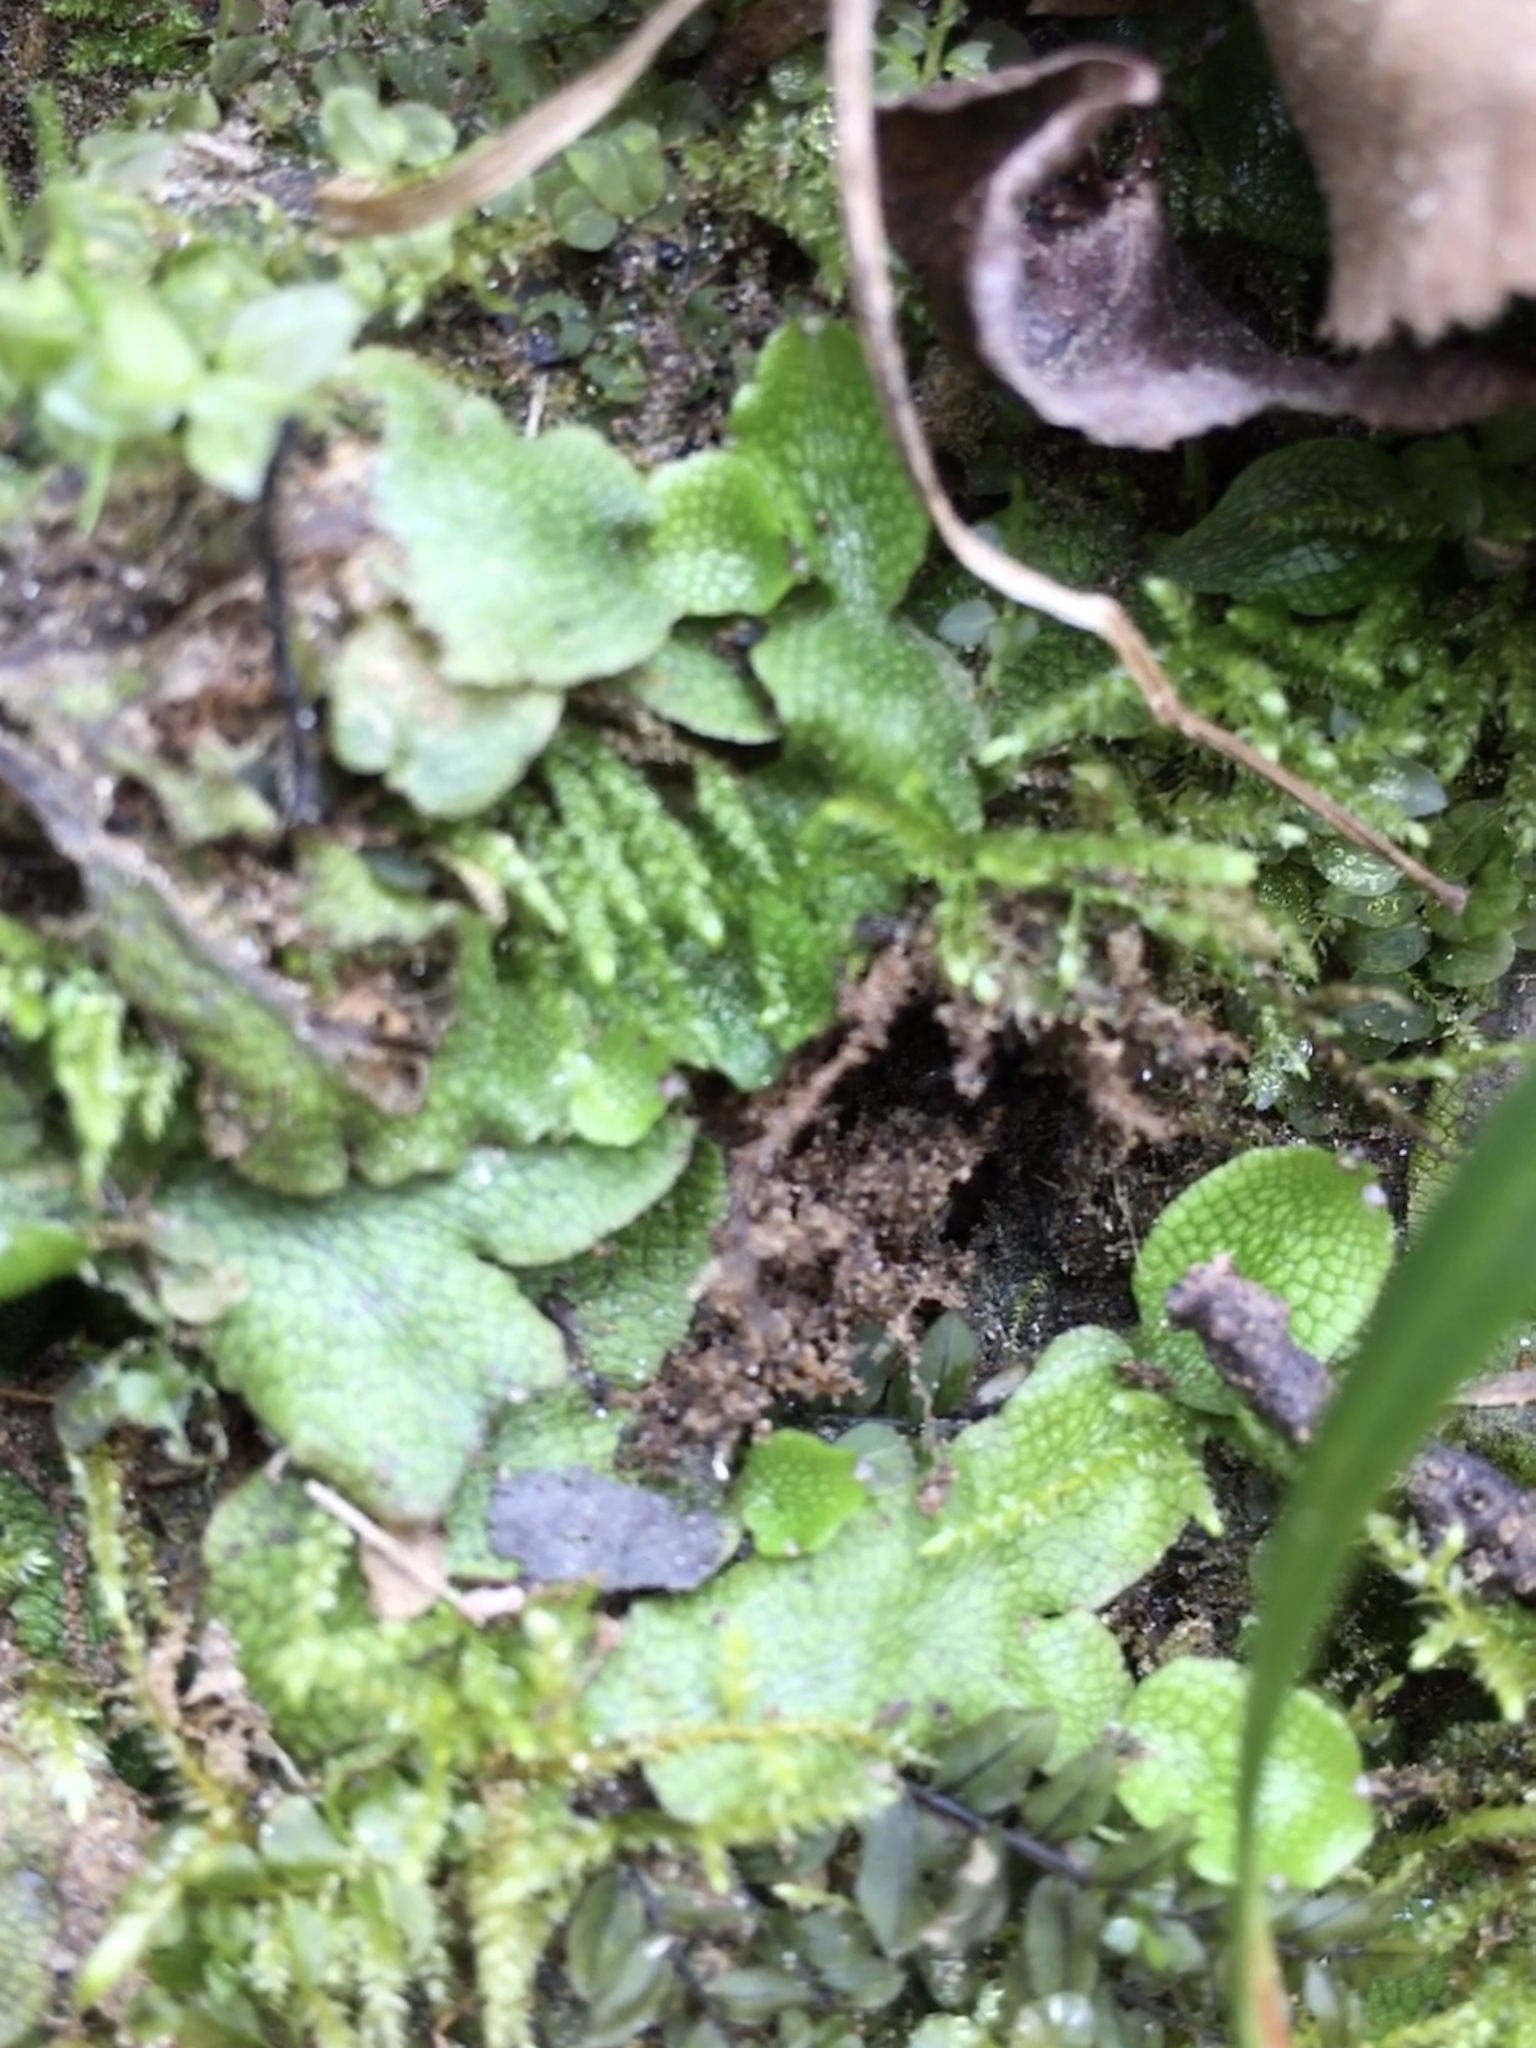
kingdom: Plantae
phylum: Marchantiophyta
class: Marchantiopsida
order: Marchantiales
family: Conocephalaceae
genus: Conocephalum
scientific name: Conocephalum salebrosum
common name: Cat-tongue liverwort
